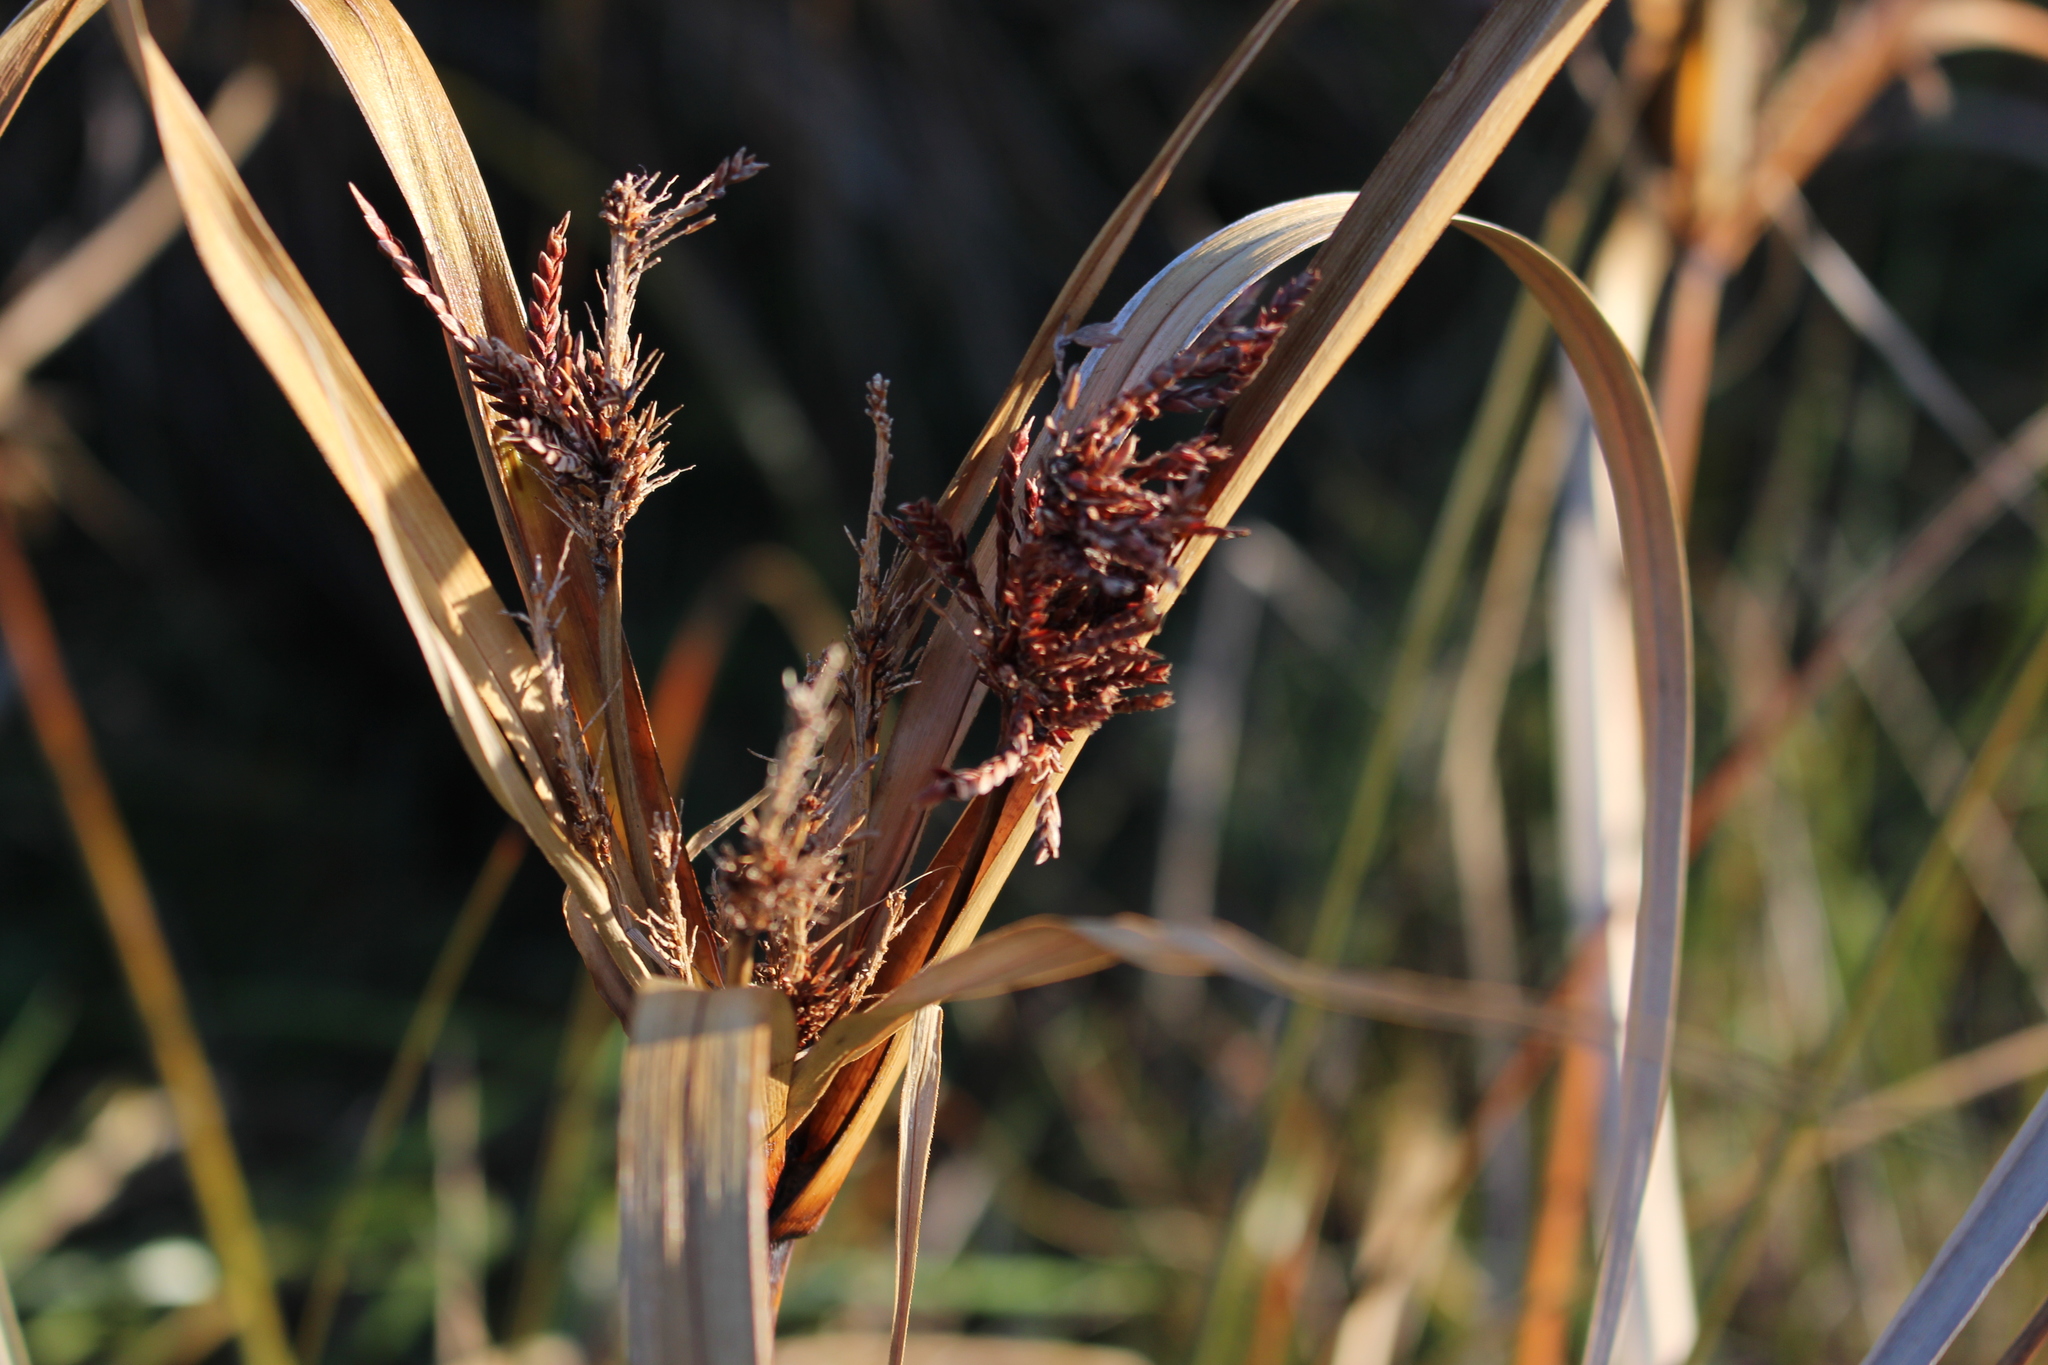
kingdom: Plantae
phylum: Tracheophyta
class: Liliopsida
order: Poales
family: Cyperaceae
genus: Cyperus
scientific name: Cyperus ustulatus
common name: Giant umbrella-sedge
